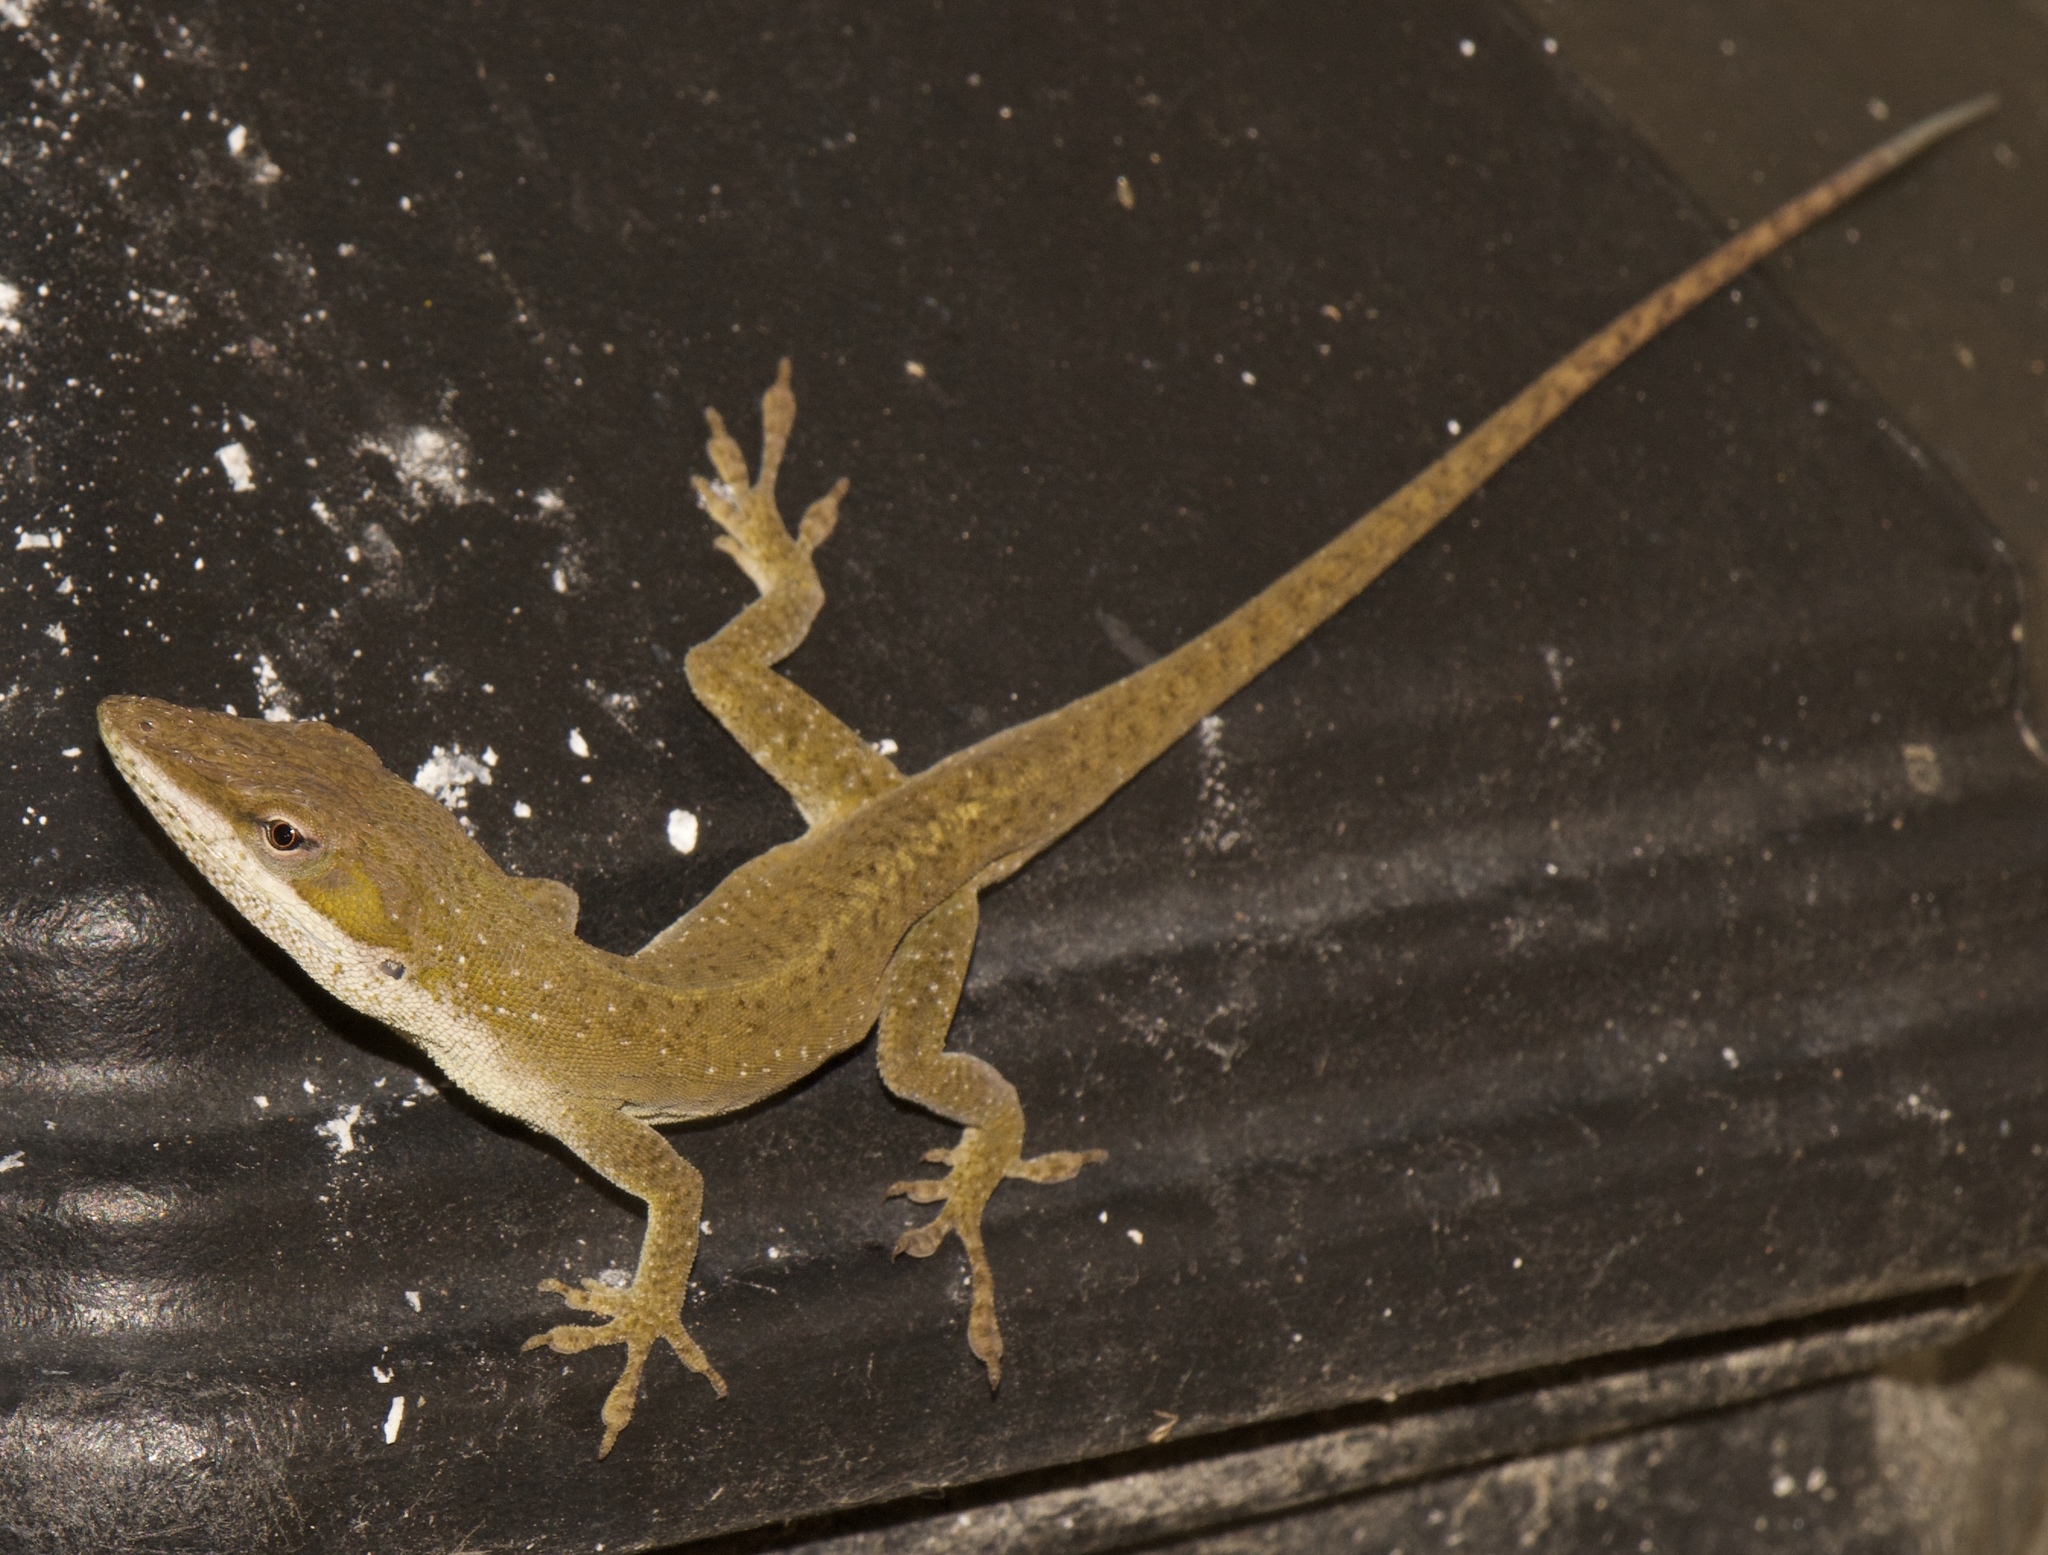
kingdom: Animalia
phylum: Chordata
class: Squamata
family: Dactyloidae
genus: Anolis
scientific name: Anolis carolinensis
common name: Green anole
